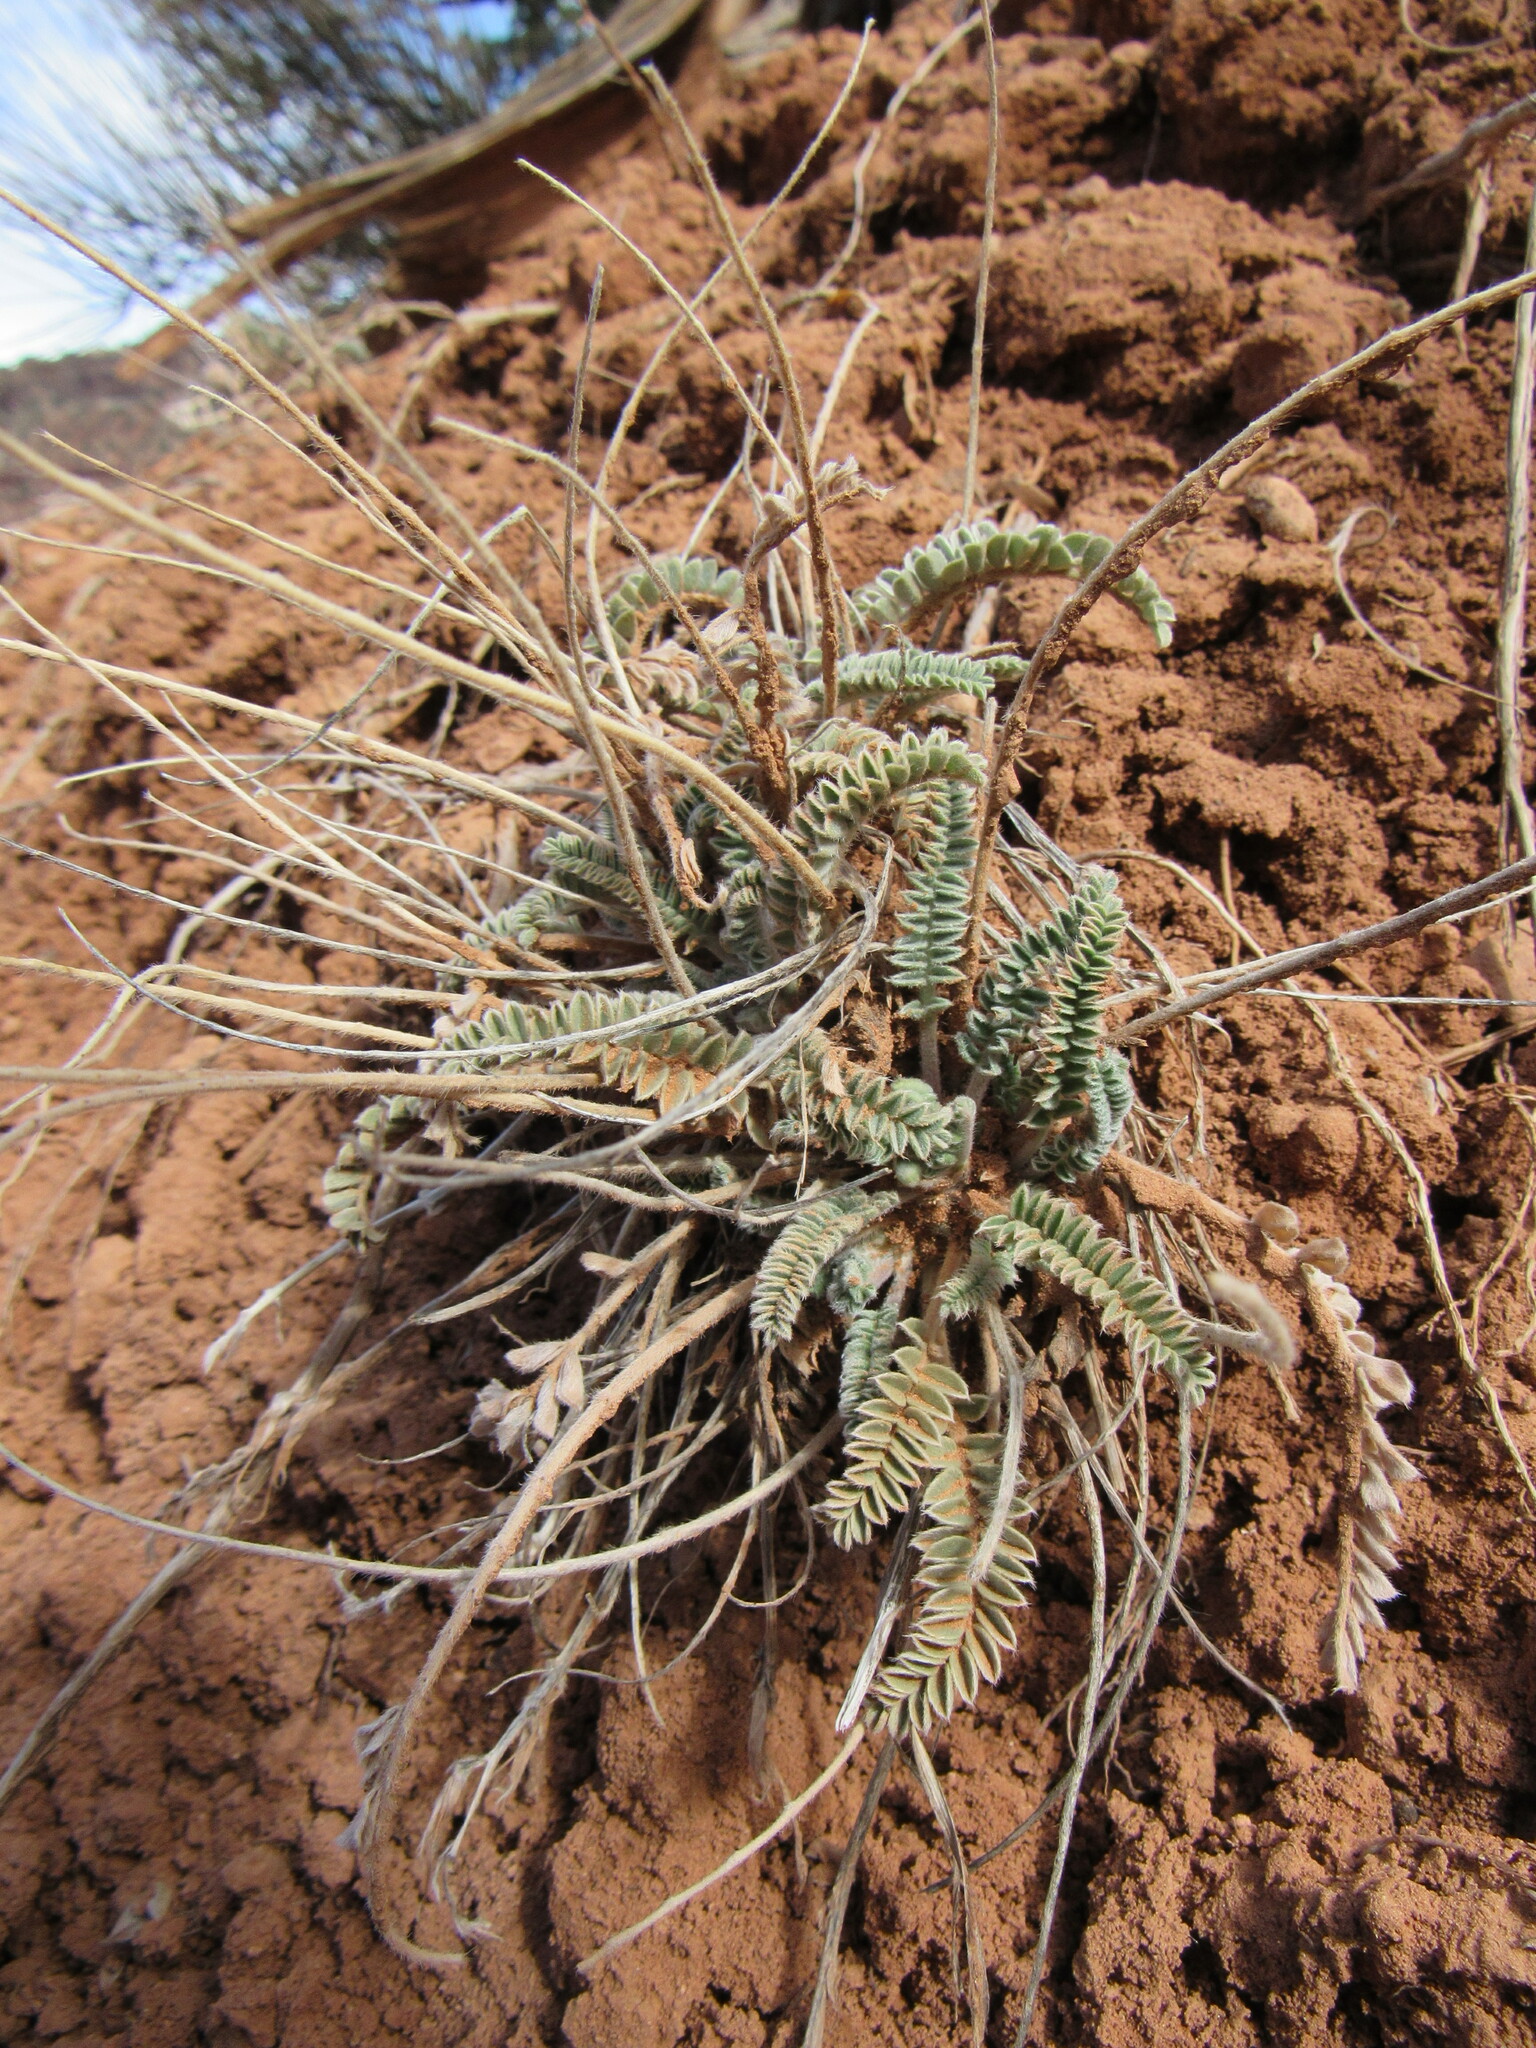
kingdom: Plantae
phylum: Tracheophyta
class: Magnoliopsida
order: Fabales
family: Fabaceae
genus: Astragalus
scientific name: Astragalus mollissimus
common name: Woolly locoweed
